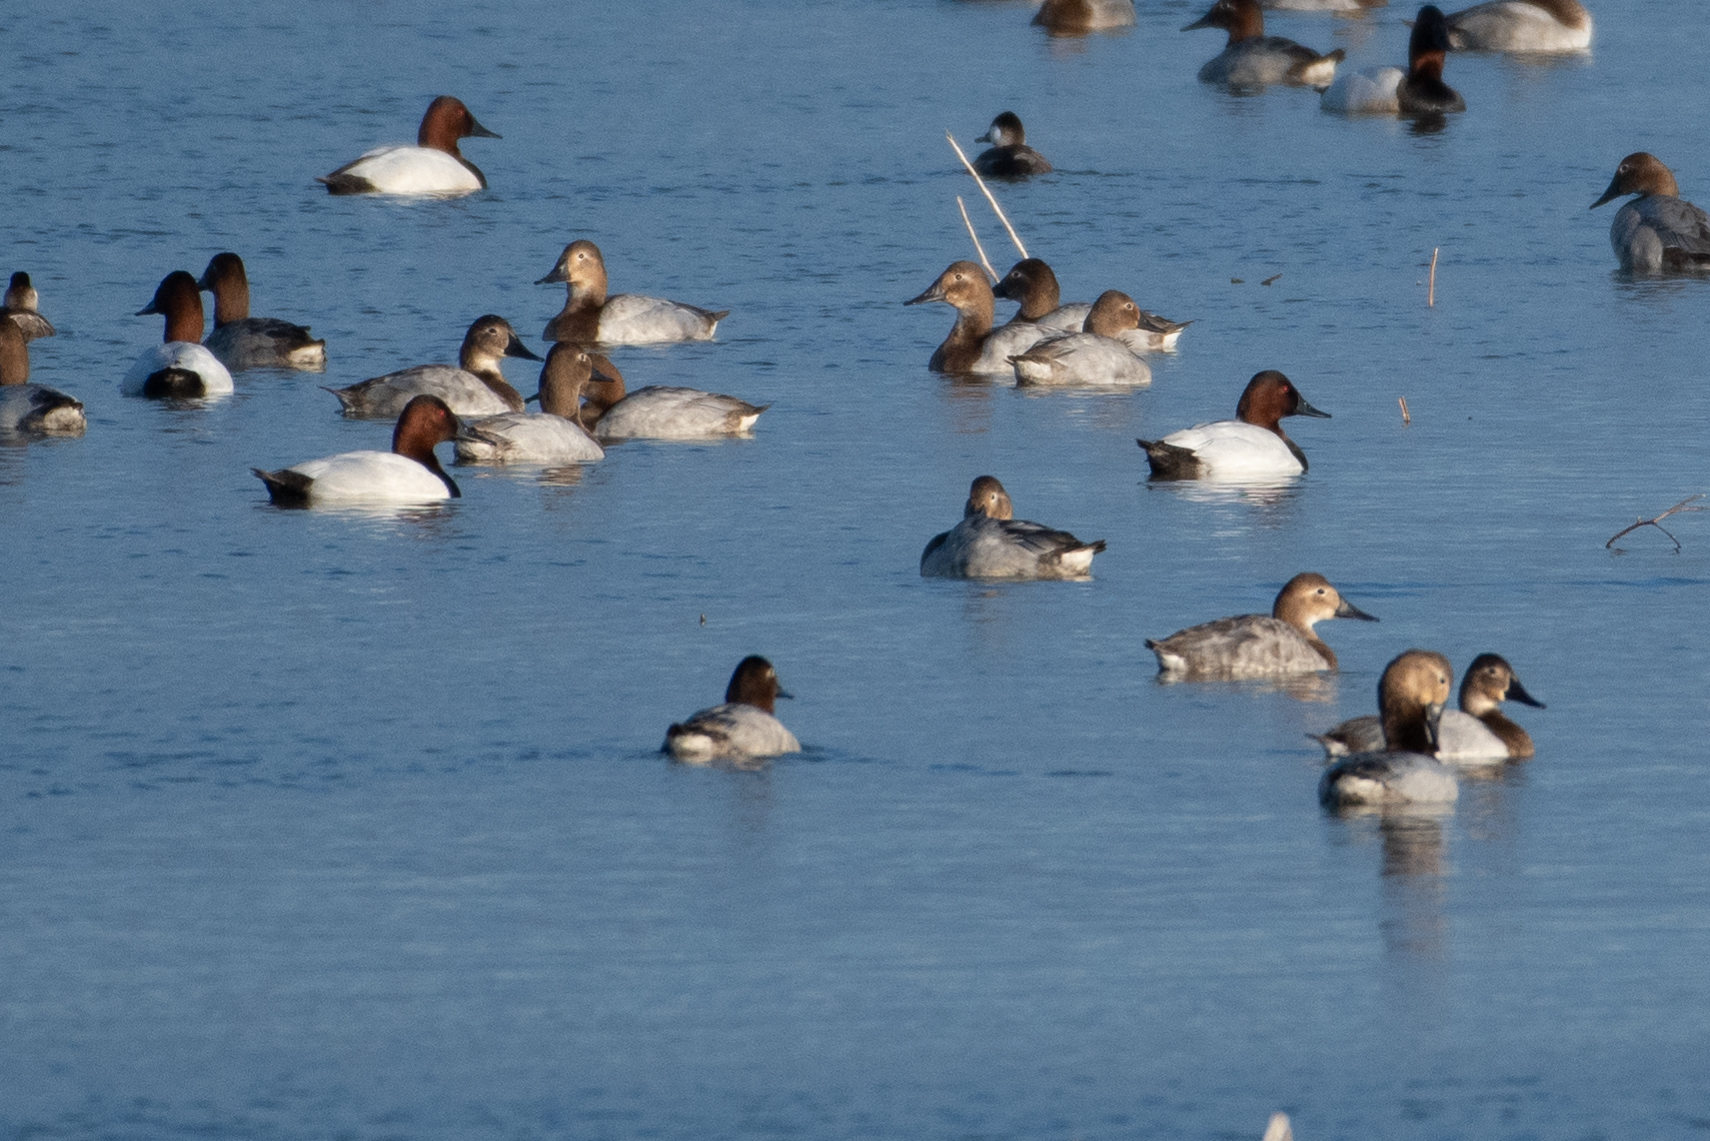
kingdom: Animalia
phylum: Chordata
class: Aves
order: Anseriformes
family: Anatidae
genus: Aythya
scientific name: Aythya valisineria
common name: Canvasback
